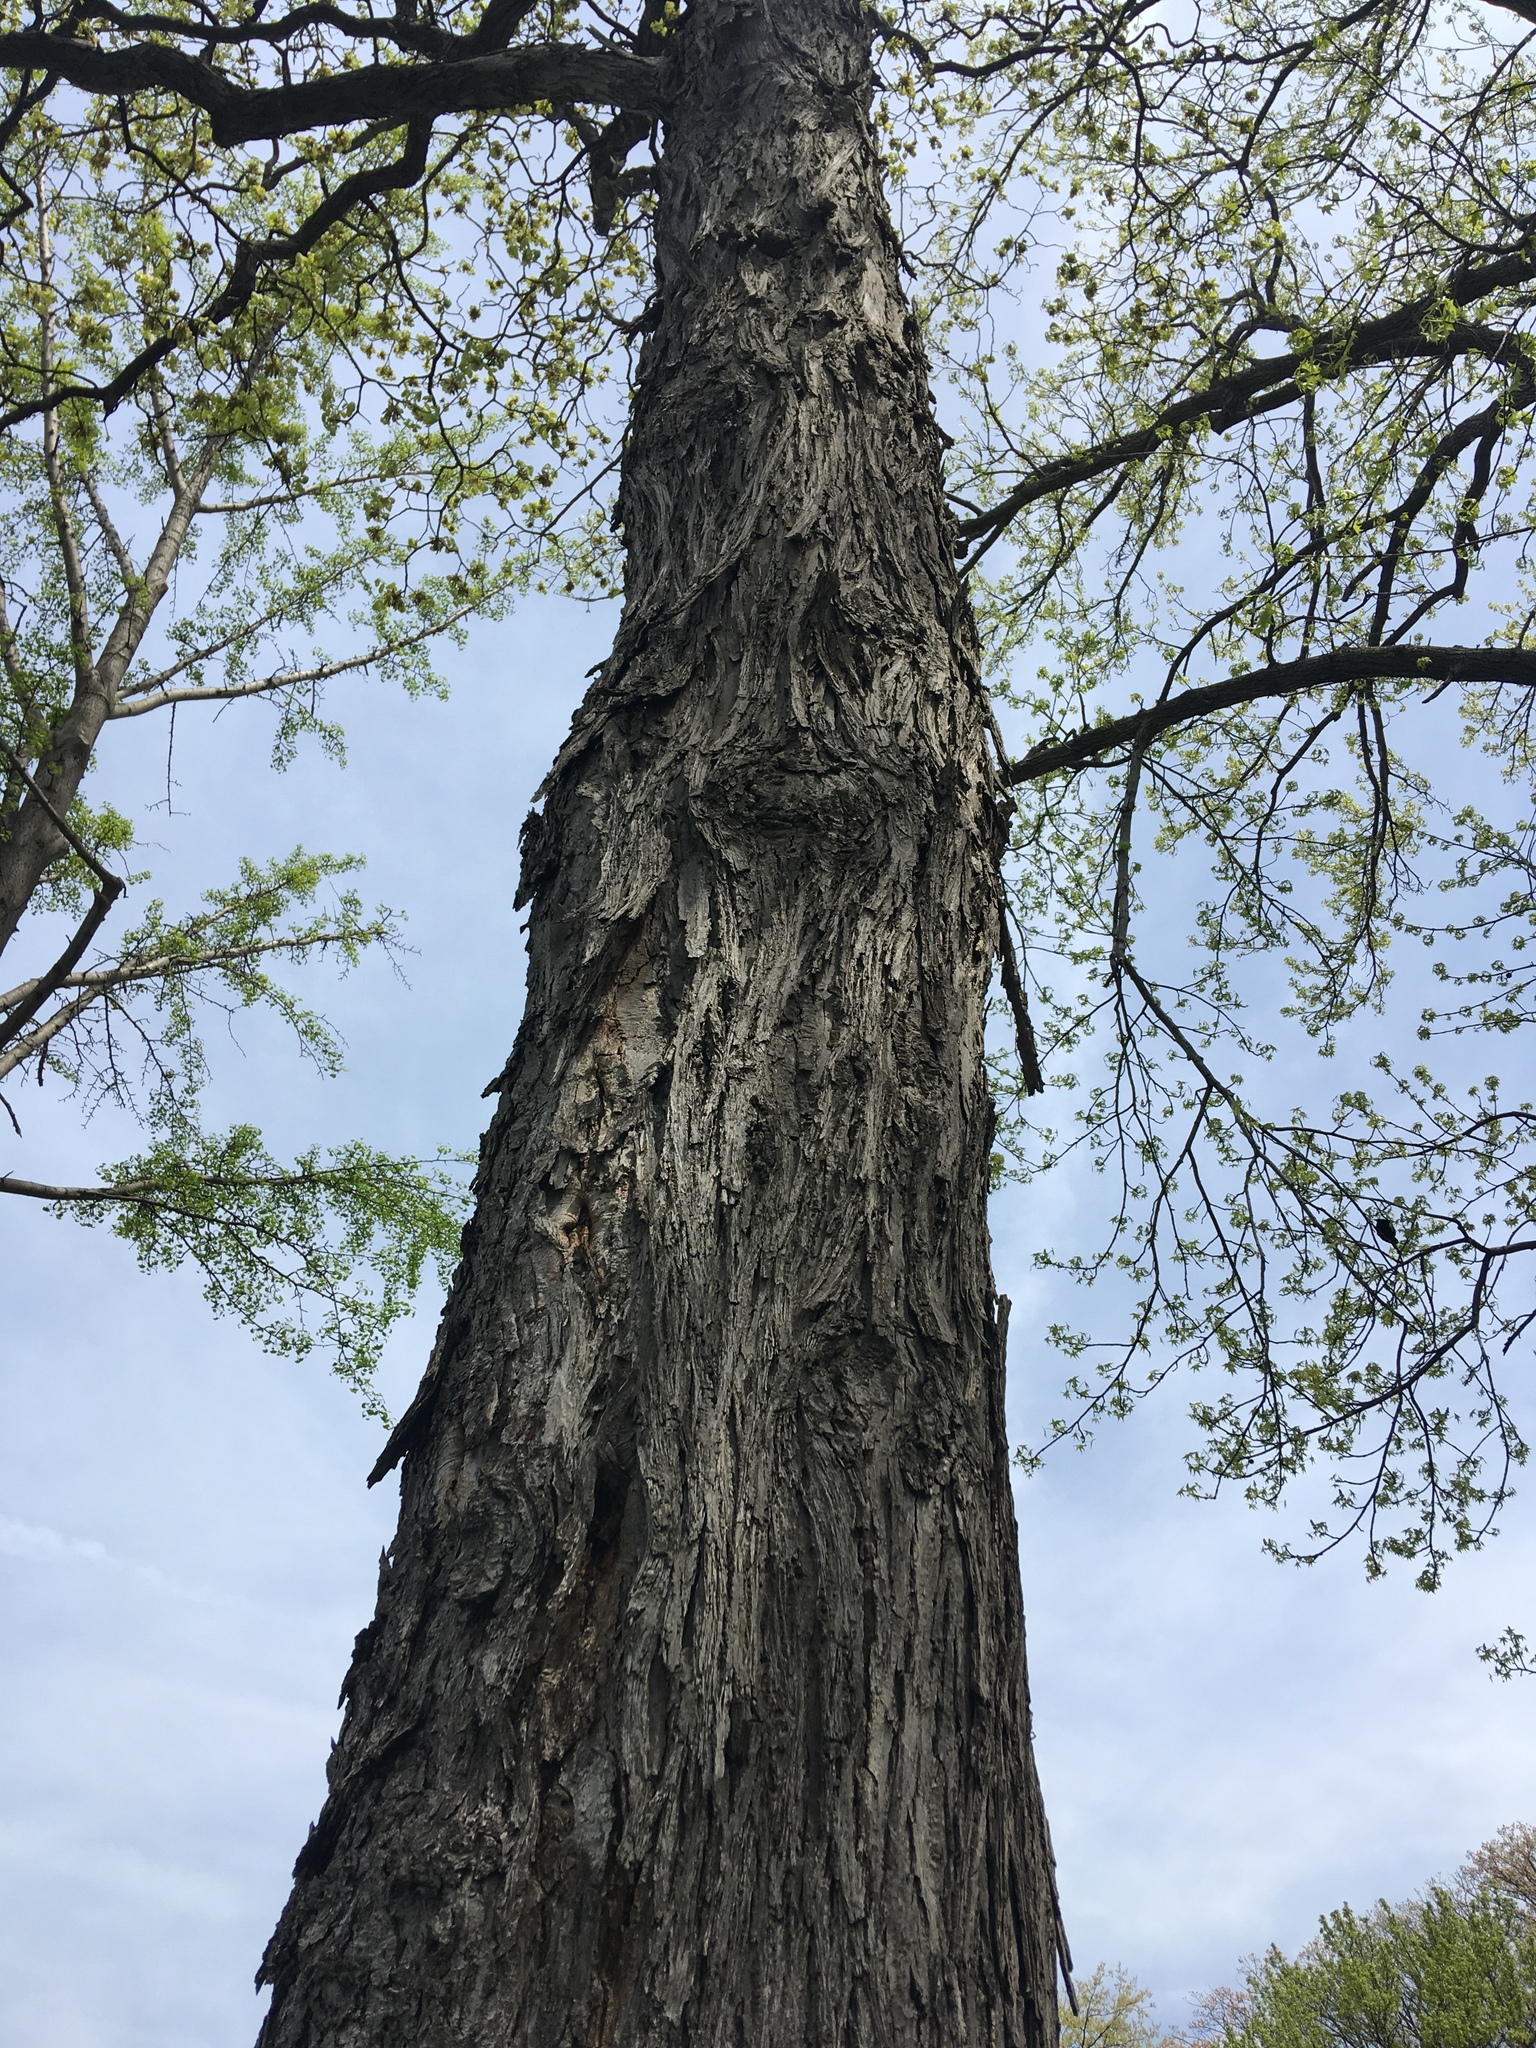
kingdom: Plantae
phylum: Tracheophyta
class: Magnoliopsida
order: Fagales
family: Juglandaceae
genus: Carya
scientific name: Carya ovata
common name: Shagbark hickory
